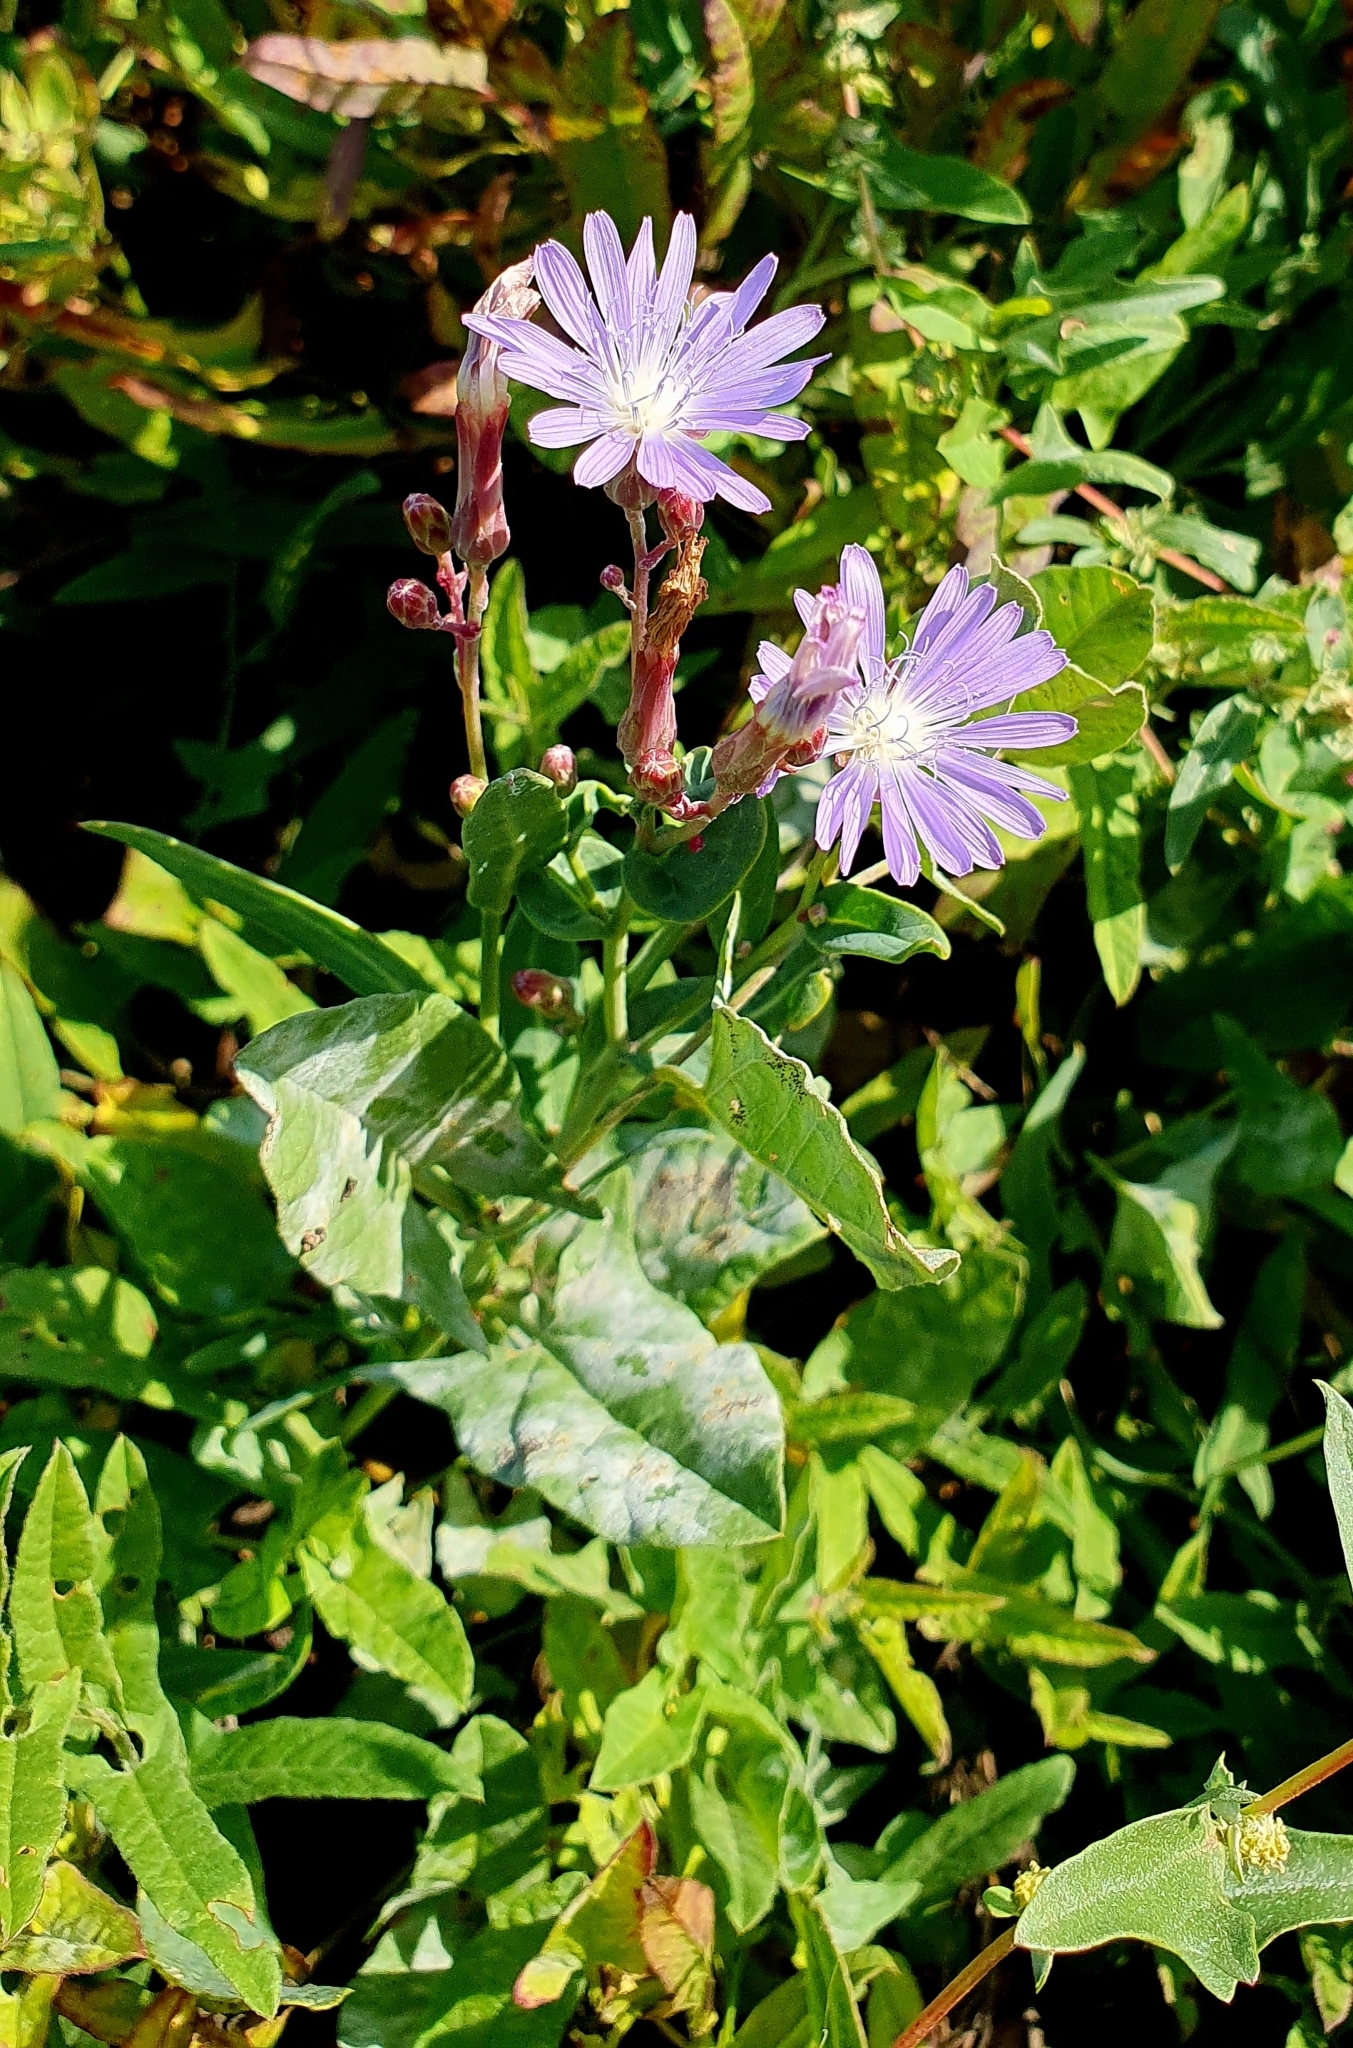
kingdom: Plantae
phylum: Tracheophyta
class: Magnoliopsida
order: Asterales
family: Asteraceae
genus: Lactuca
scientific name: Lactuca tatarica
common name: Blue lettuce
